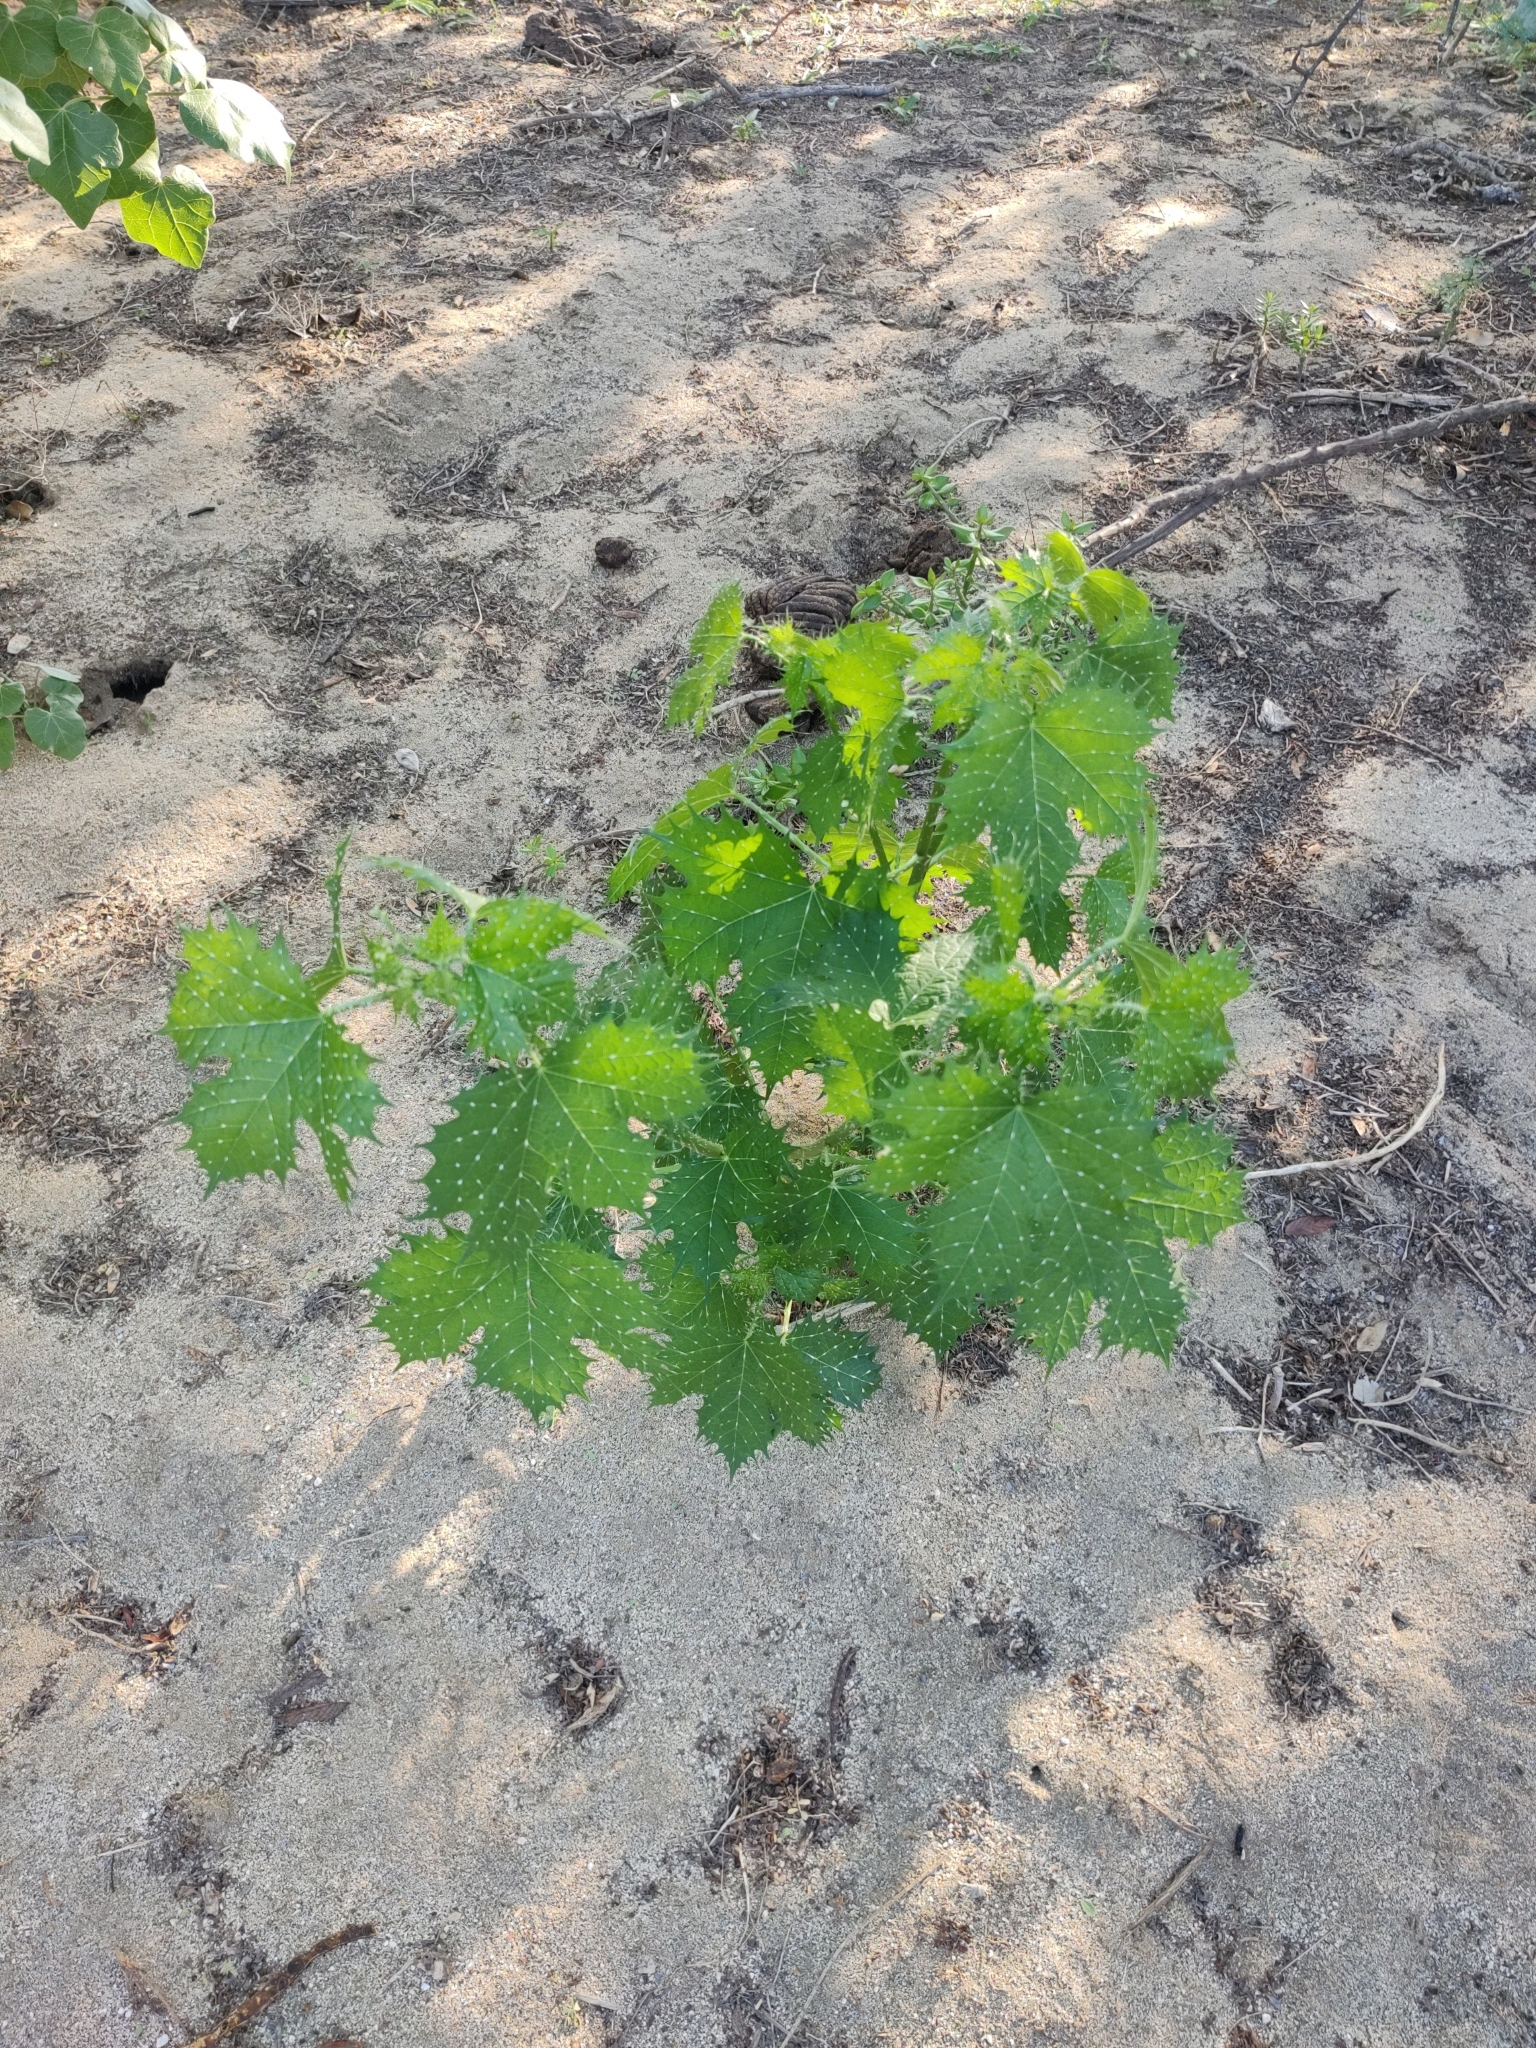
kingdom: Plantae
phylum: Tracheophyta
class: Magnoliopsida
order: Malpighiales
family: Euphorbiaceae
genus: Cnidoscolus
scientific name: Cnidoscolus maculatus
